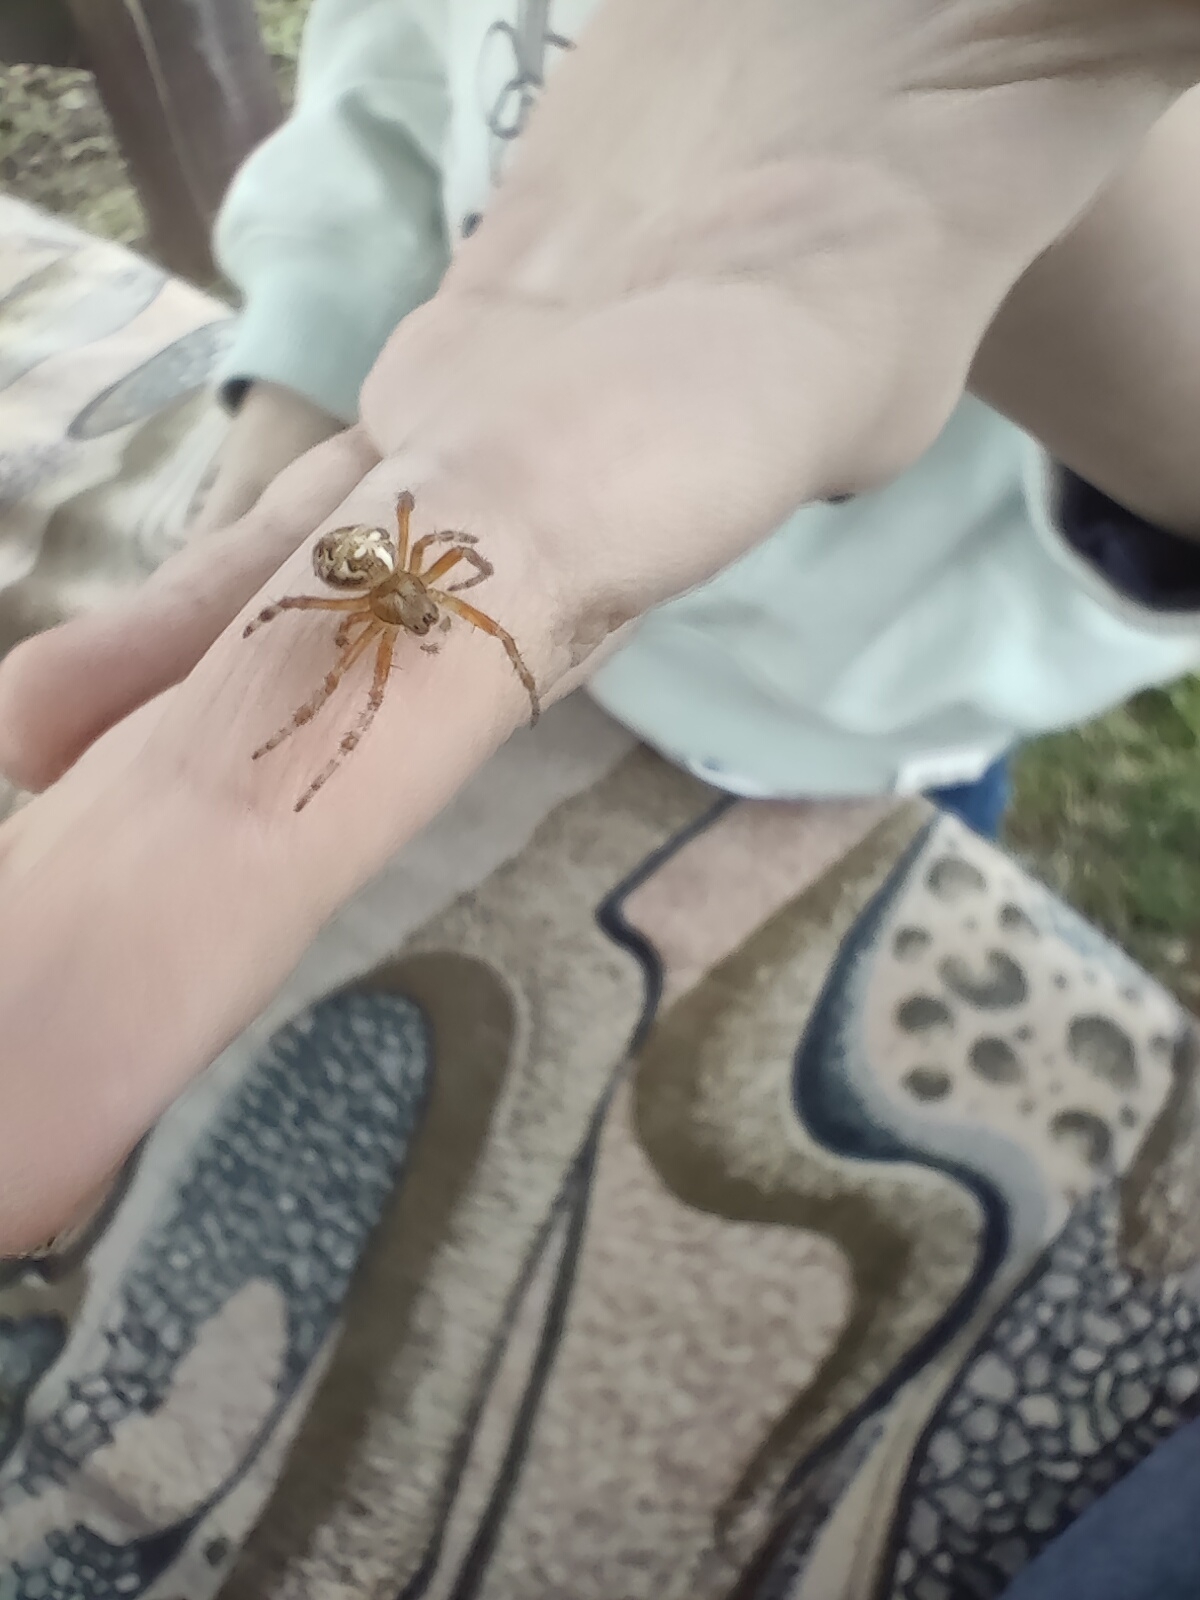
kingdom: Animalia
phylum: Arthropoda
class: Arachnida
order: Araneae
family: Araneidae
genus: Araneus
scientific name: Araneus diadematus
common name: Cross orbweaver
